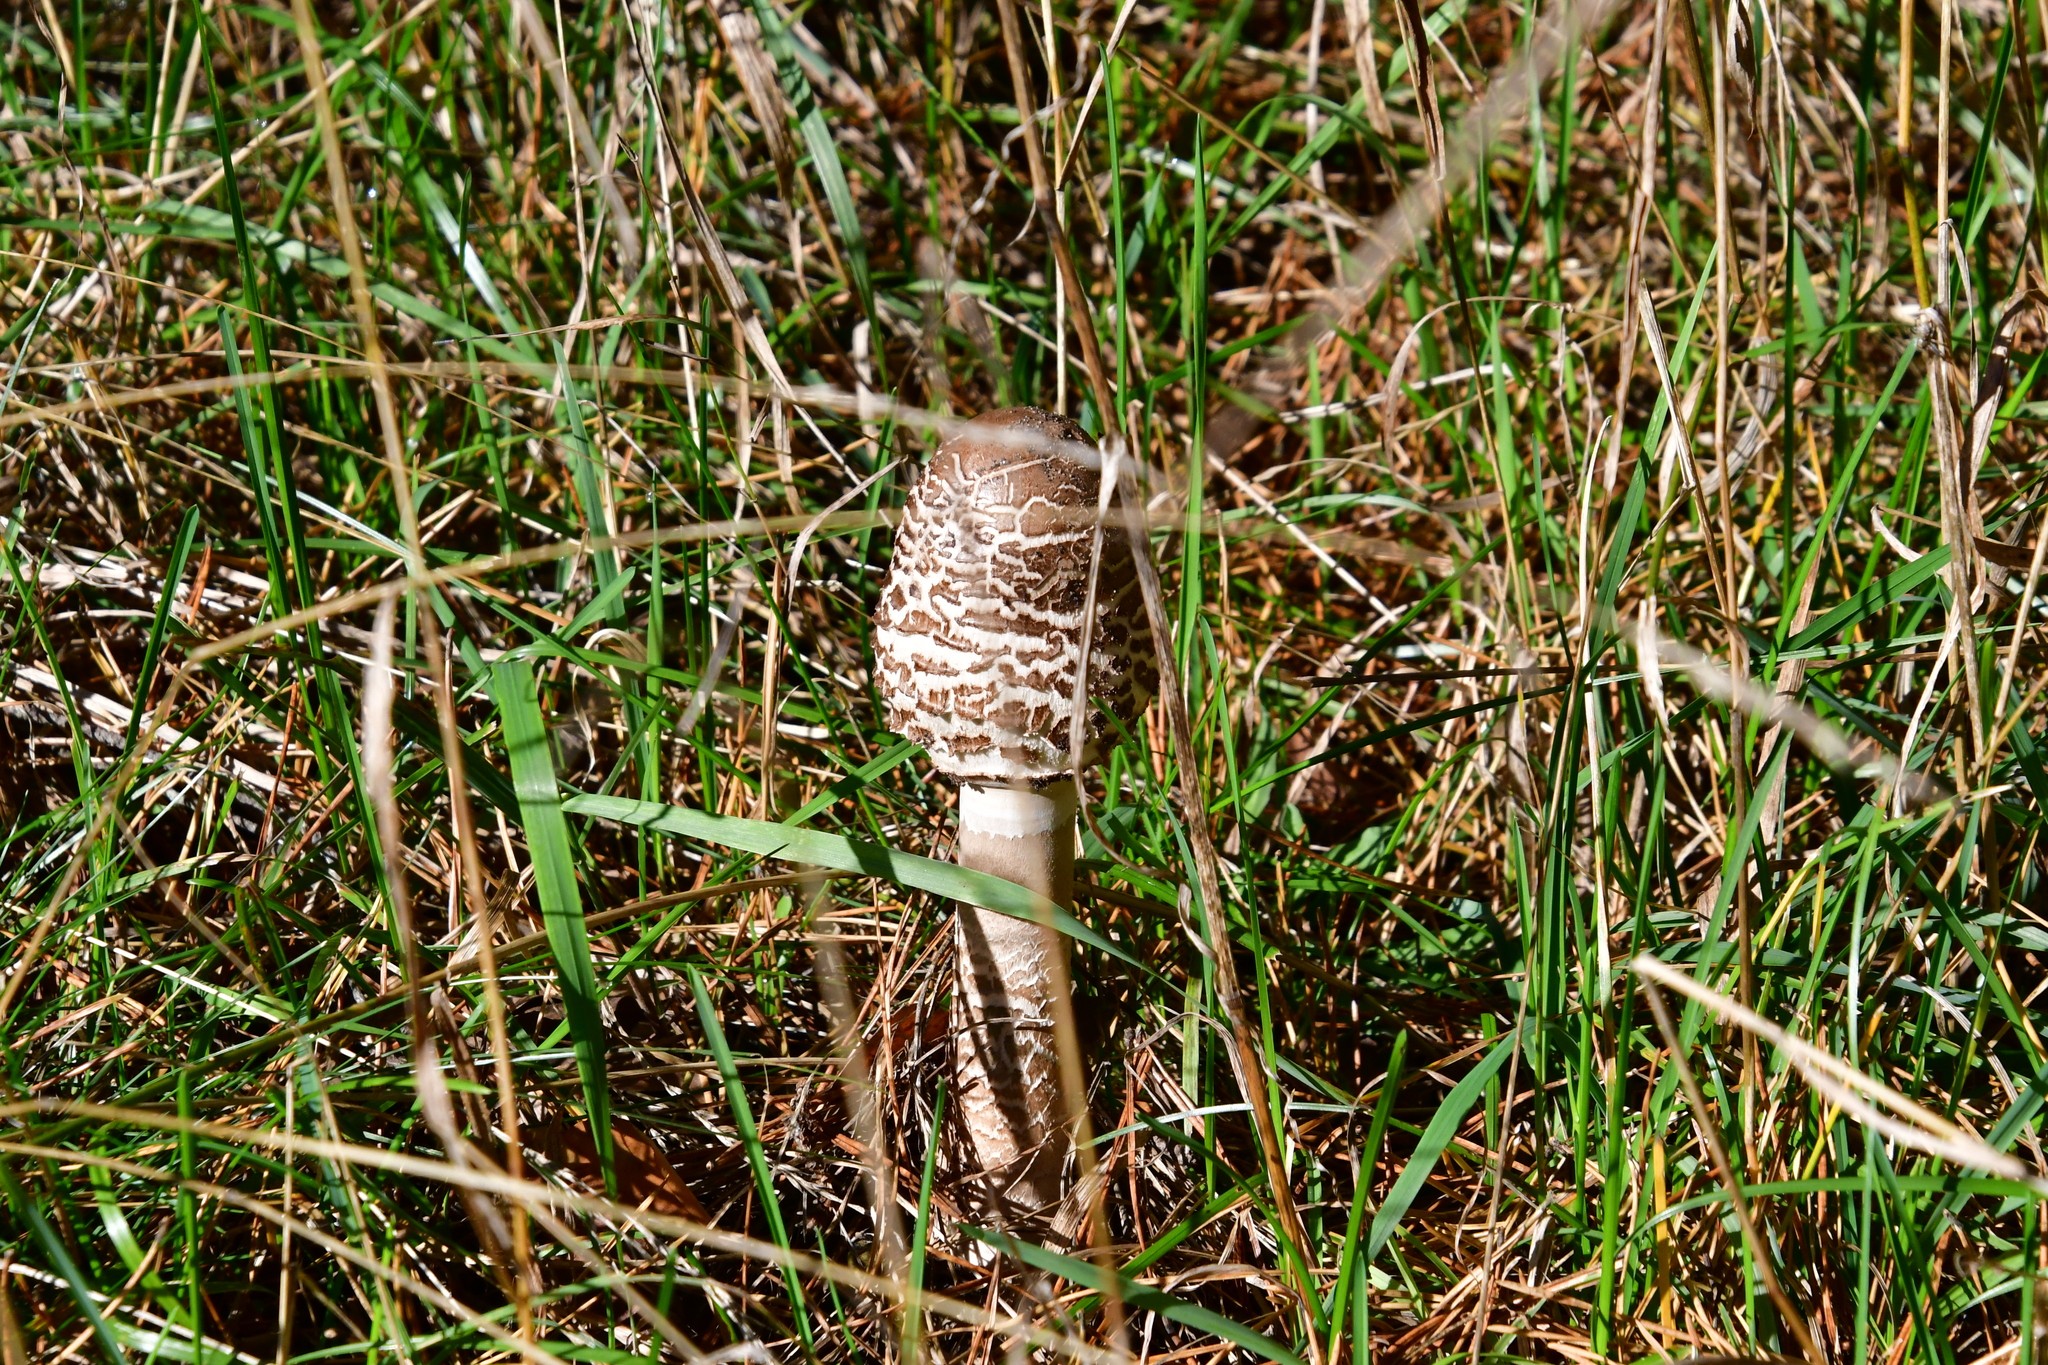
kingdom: Fungi
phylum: Basidiomycota
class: Agaricomycetes
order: Agaricales
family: Agaricaceae
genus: Macrolepiota
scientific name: Macrolepiota procera
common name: Parasol
